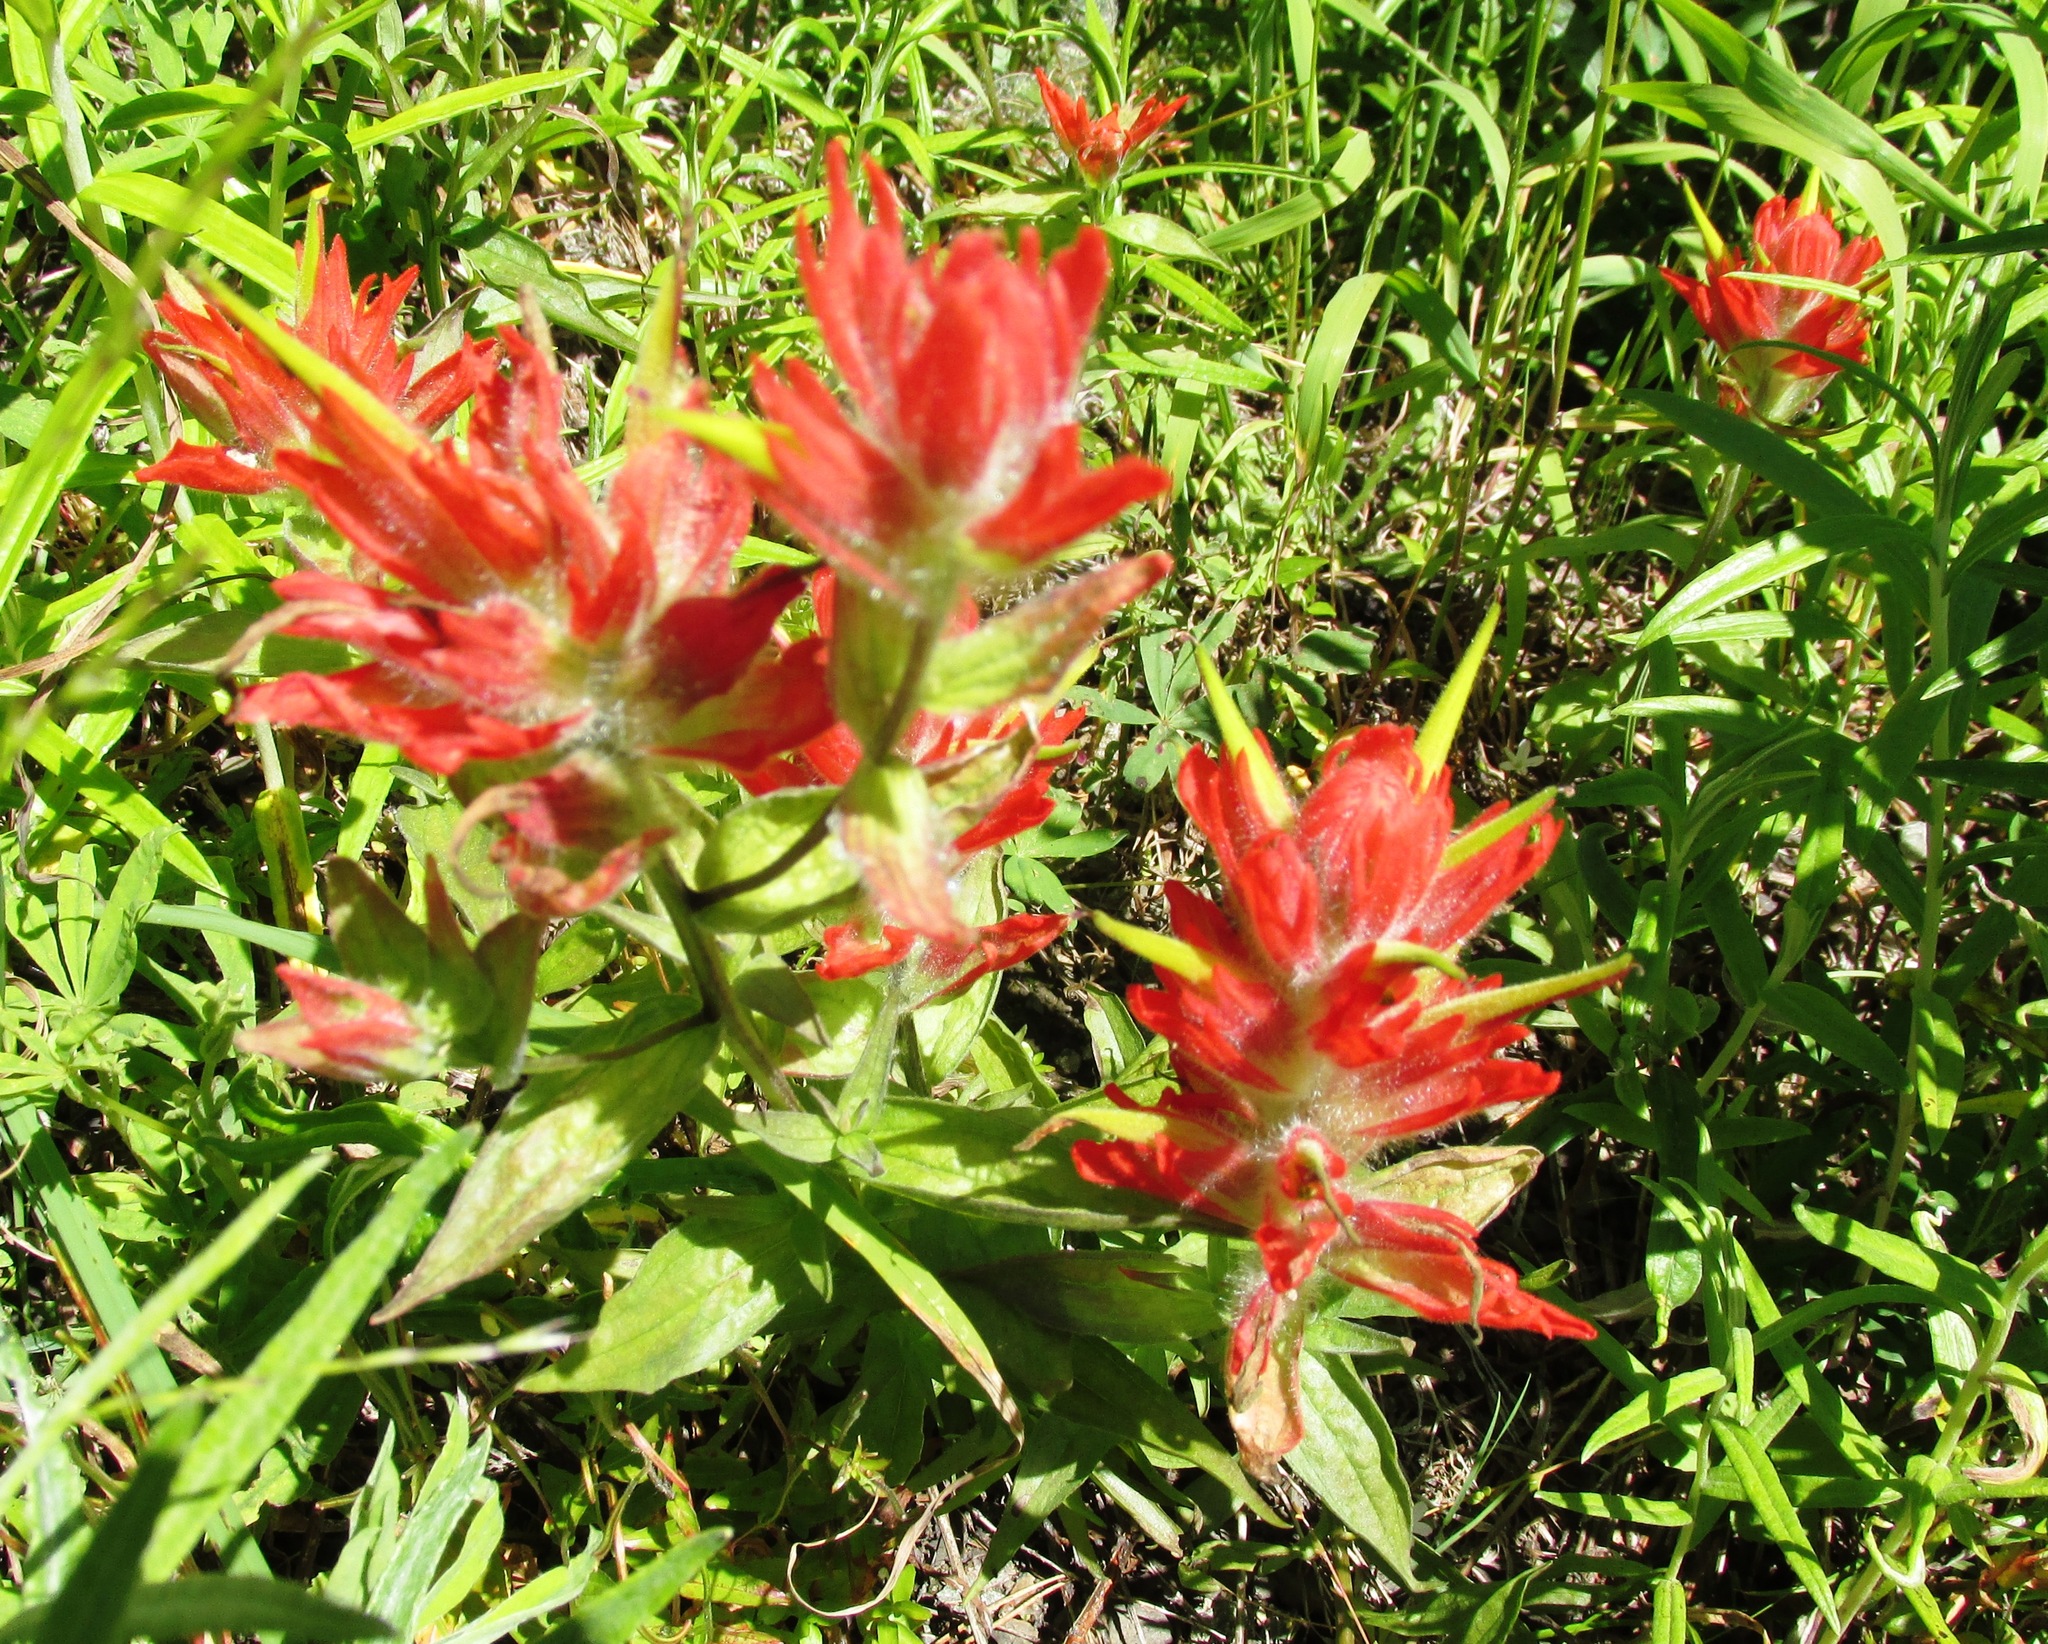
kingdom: Plantae
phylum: Tracheophyta
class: Magnoliopsida
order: Lamiales
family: Orobanchaceae
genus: Castilleja
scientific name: Castilleja miniata
